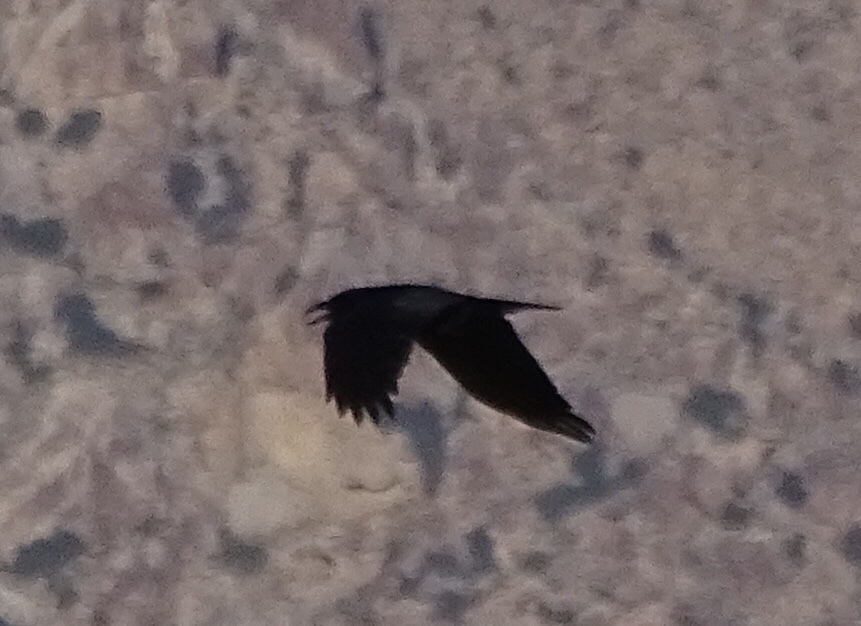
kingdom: Animalia
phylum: Chordata
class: Aves
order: Passeriformes
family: Corvidae
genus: Corvus
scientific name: Corvus corax
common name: Common raven
